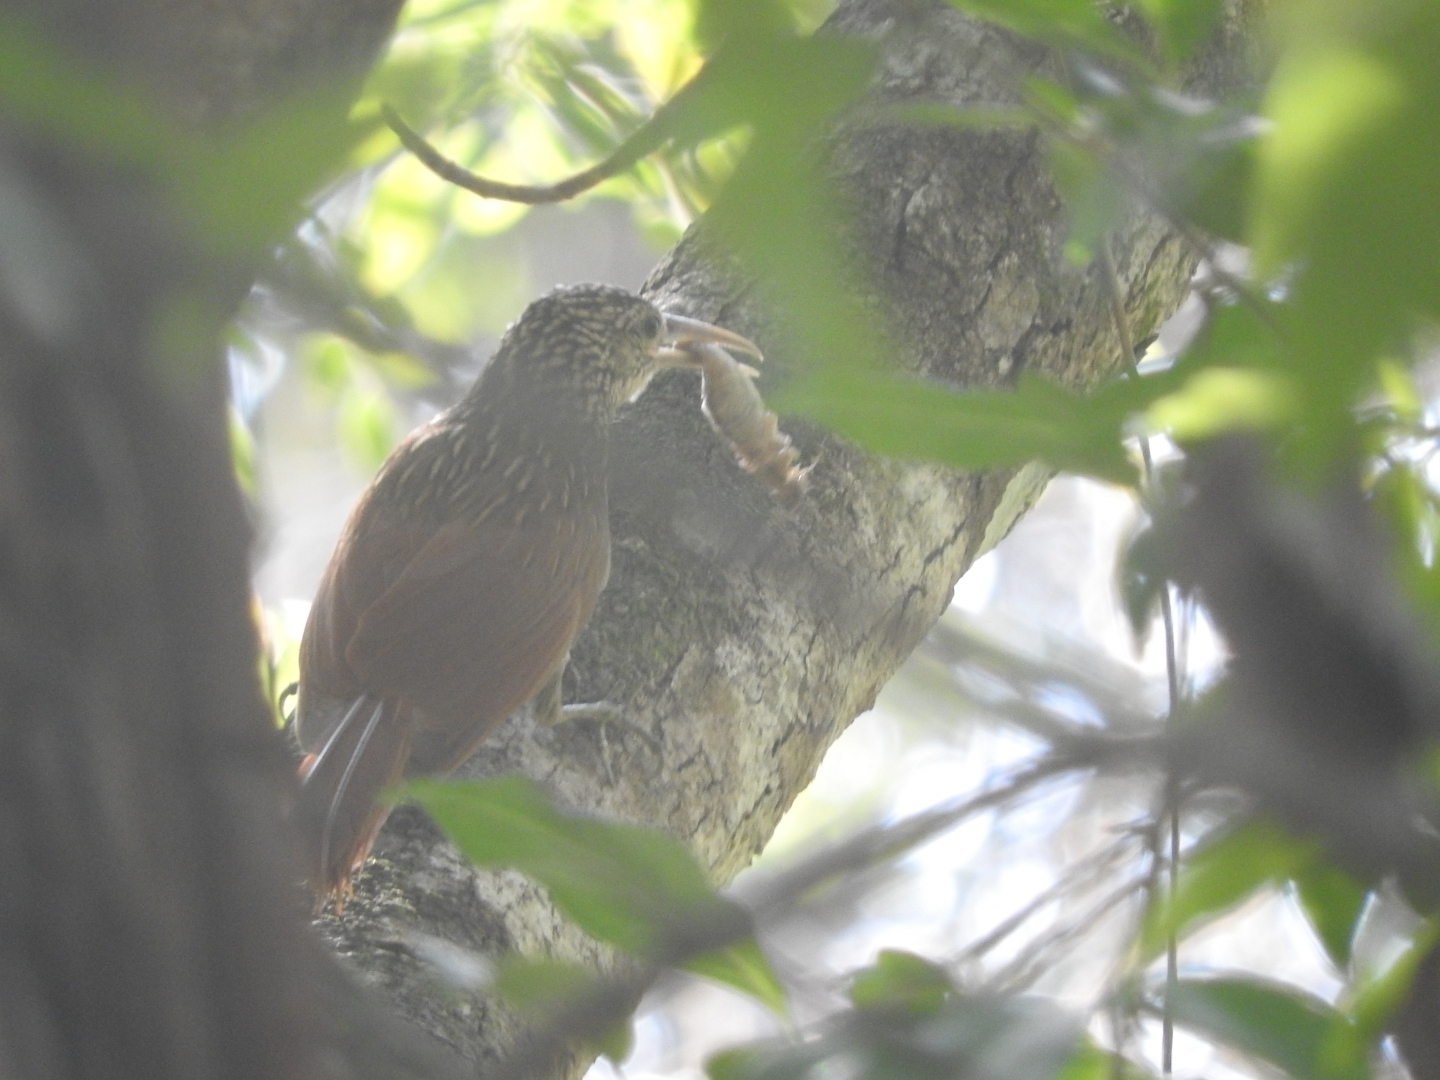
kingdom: Animalia
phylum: Chordata
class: Aves
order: Passeriformes
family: Furnariidae
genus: Xiphorhynchus
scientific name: Xiphorhynchus flavigaster
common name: Ivory-billed woodcreeper
